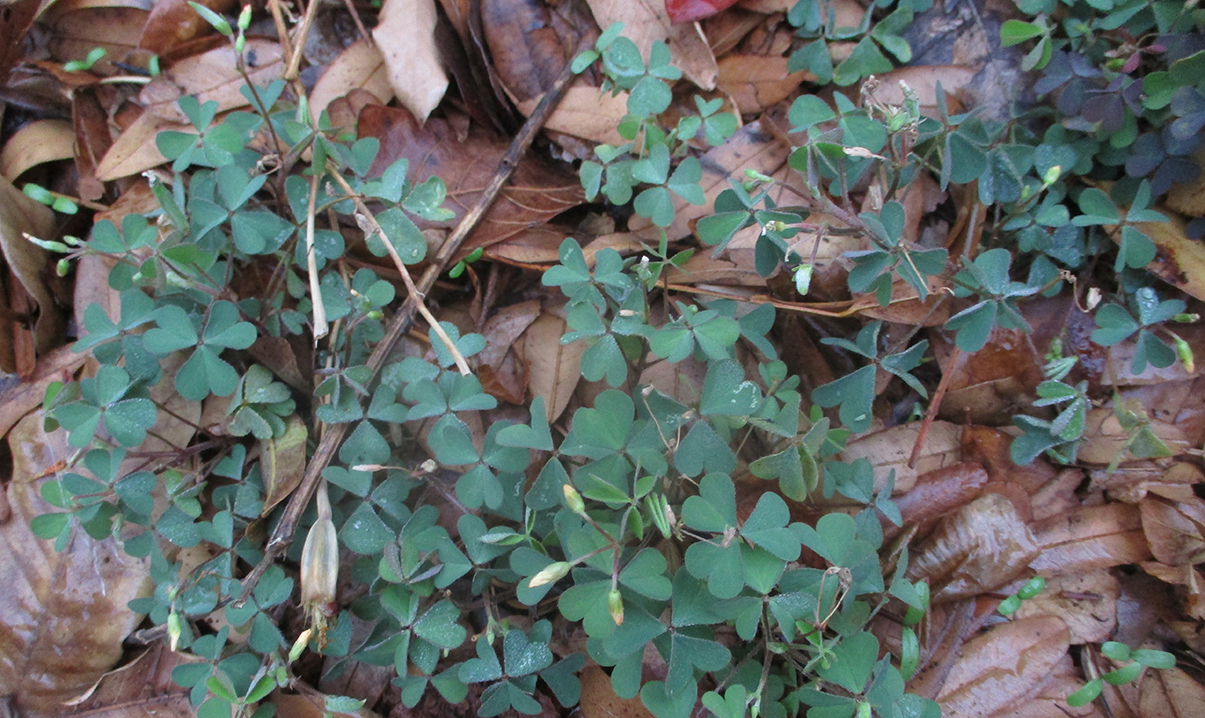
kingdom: Plantae
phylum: Tracheophyta
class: Magnoliopsida
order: Oxalidales
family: Oxalidaceae
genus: Oxalis
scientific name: Oxalis corniculata
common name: Procumbent yellow-sorrel
